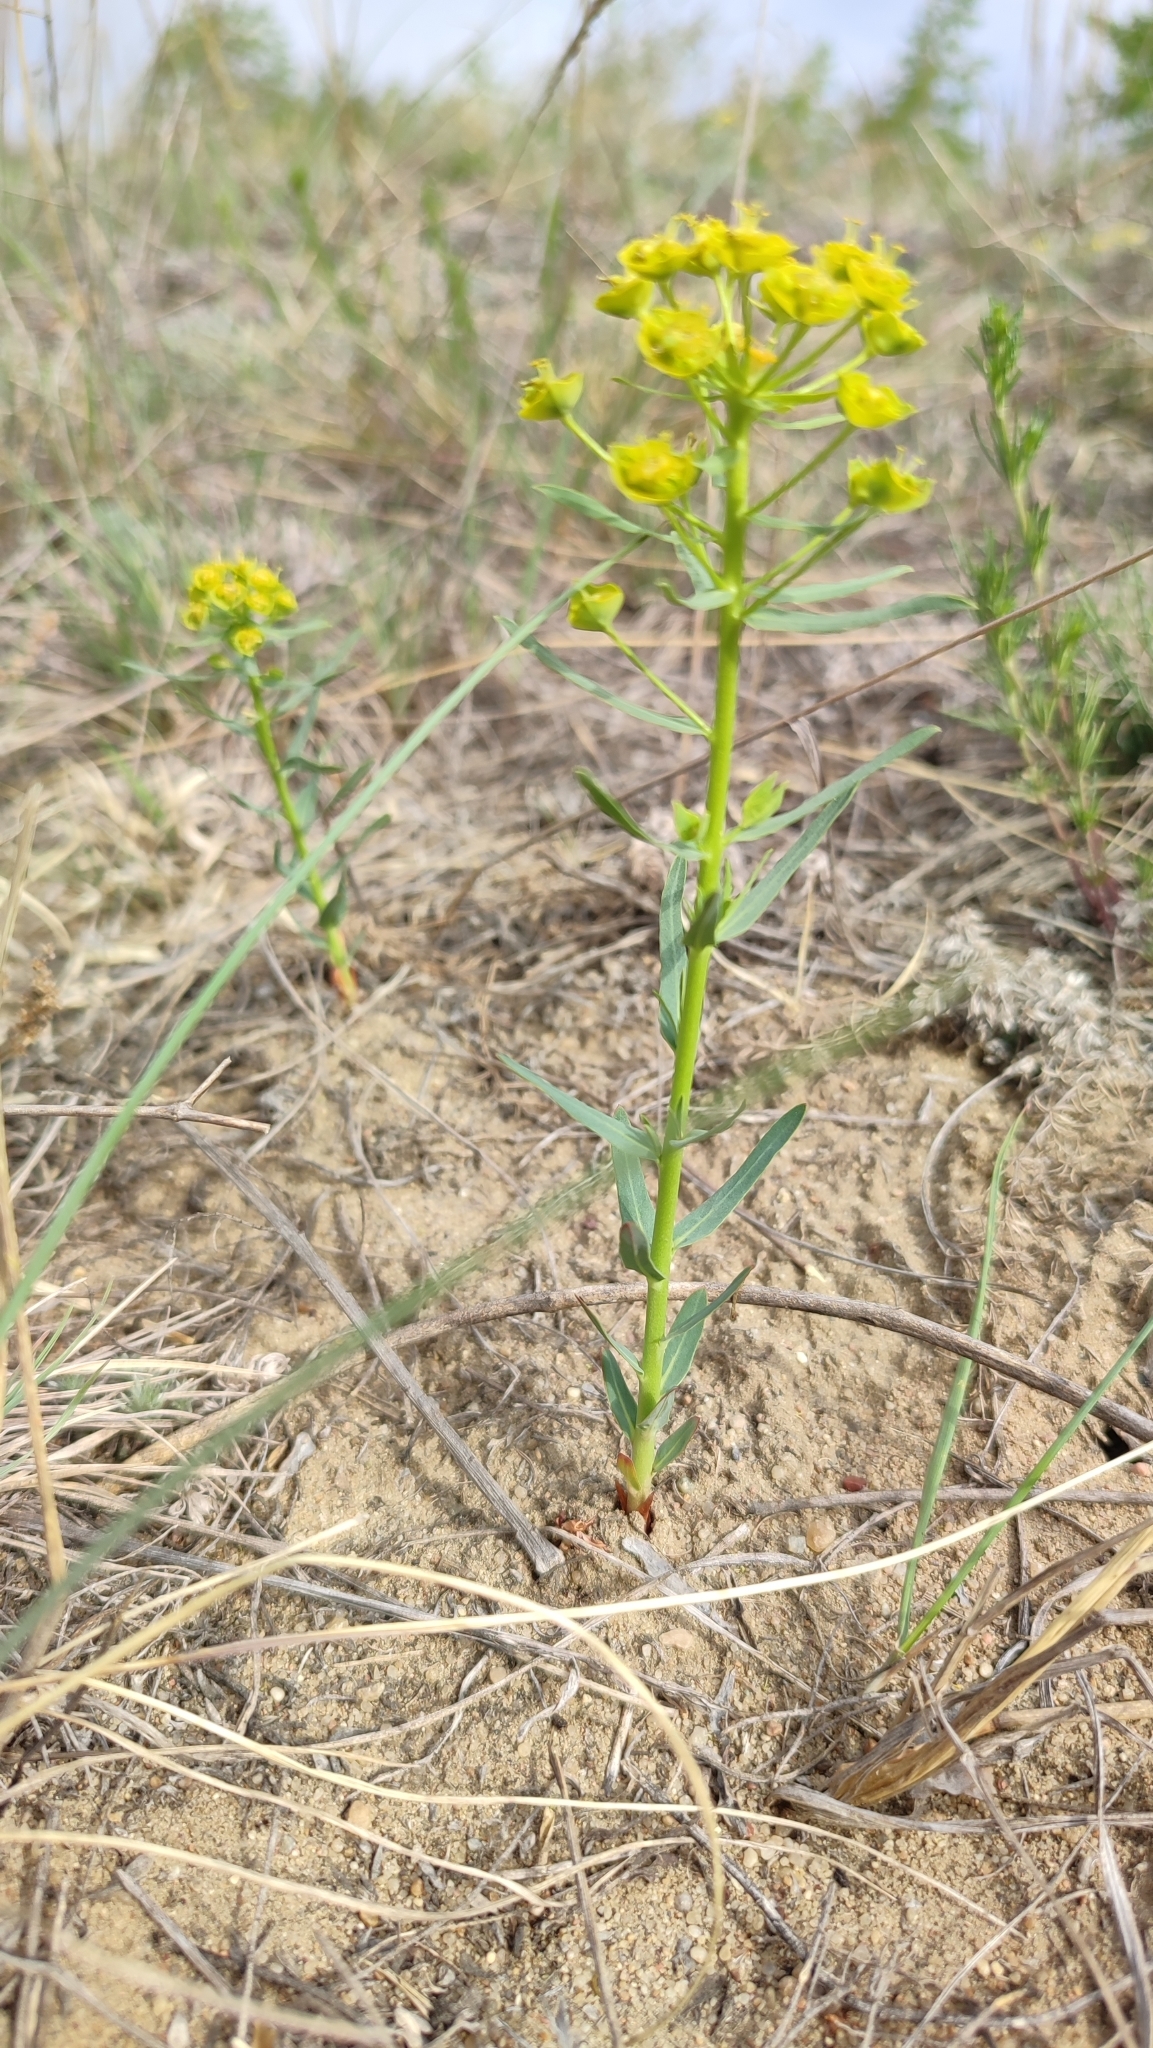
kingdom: Plantae
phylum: Tracheophyta
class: Magnoliopsida
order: Malpighiales
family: Euphorbiaceae
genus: Euphorbia
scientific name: Euphorbia virgata
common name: Leafy spurge
